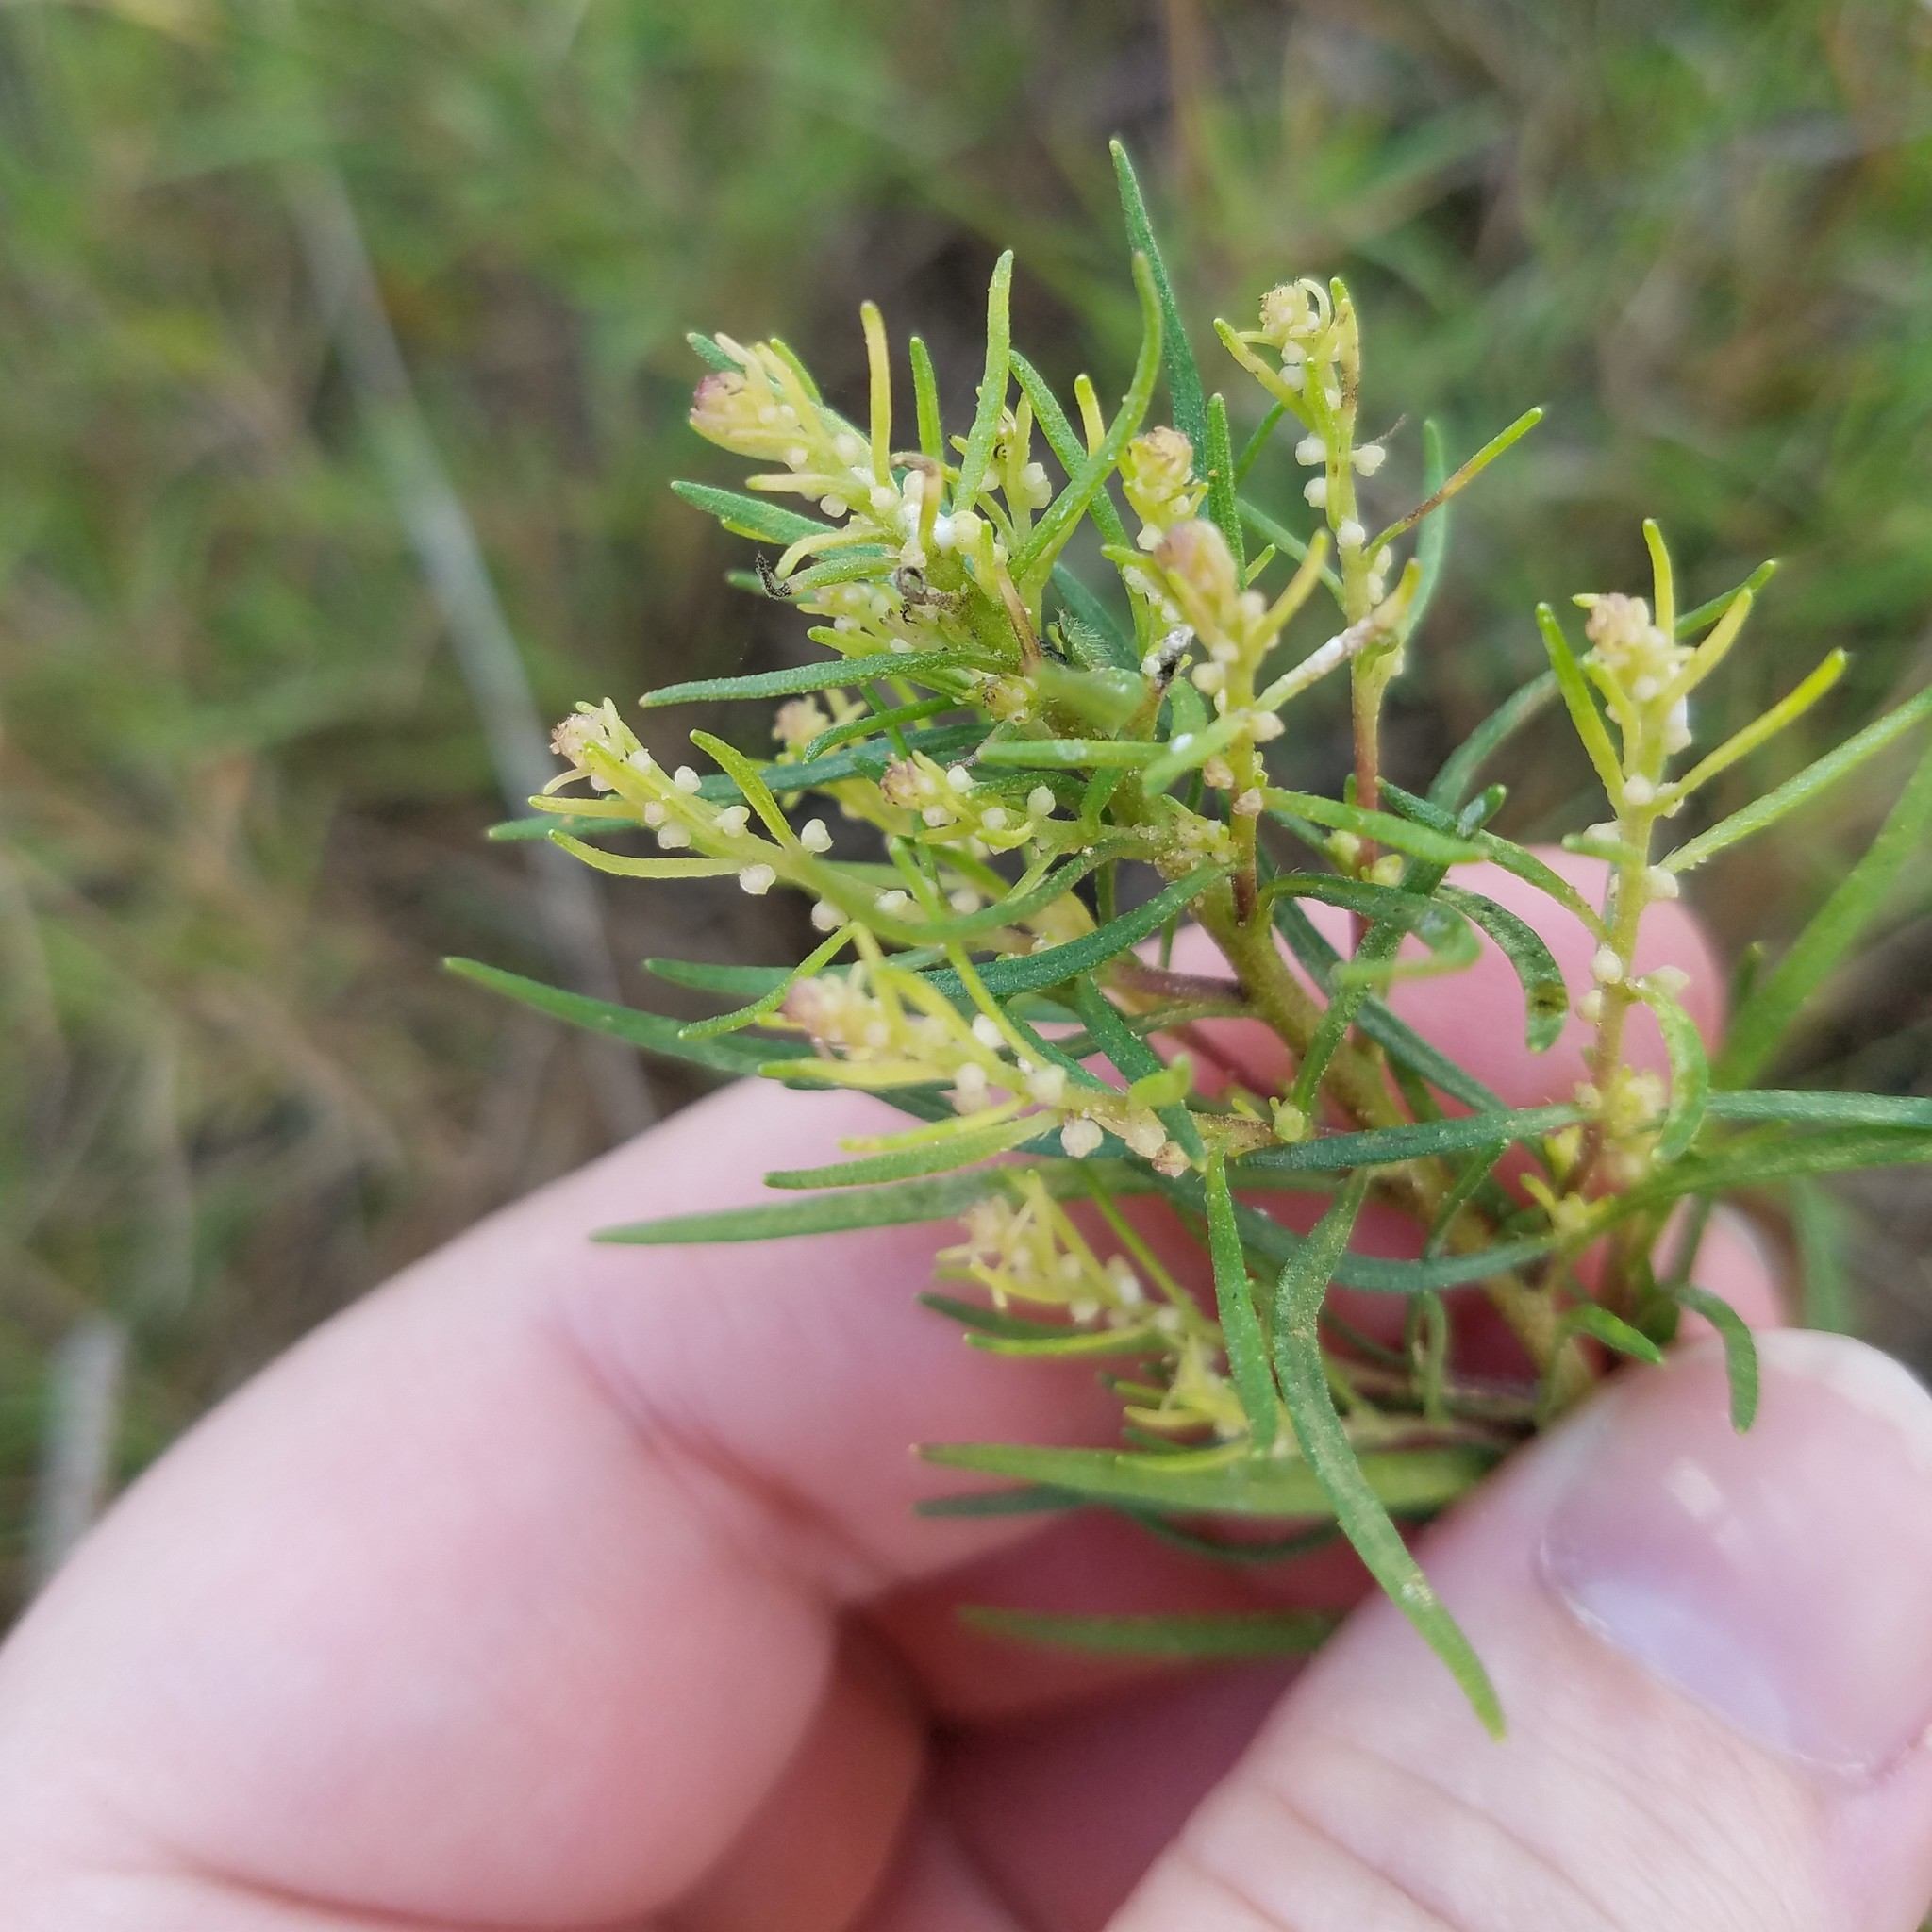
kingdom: Plantae
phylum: Tracheophyta
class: Magnoliopsida
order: Malvales
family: Cistaceae
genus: Crocanthemum
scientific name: Crocanthemum rosmarinifolium
